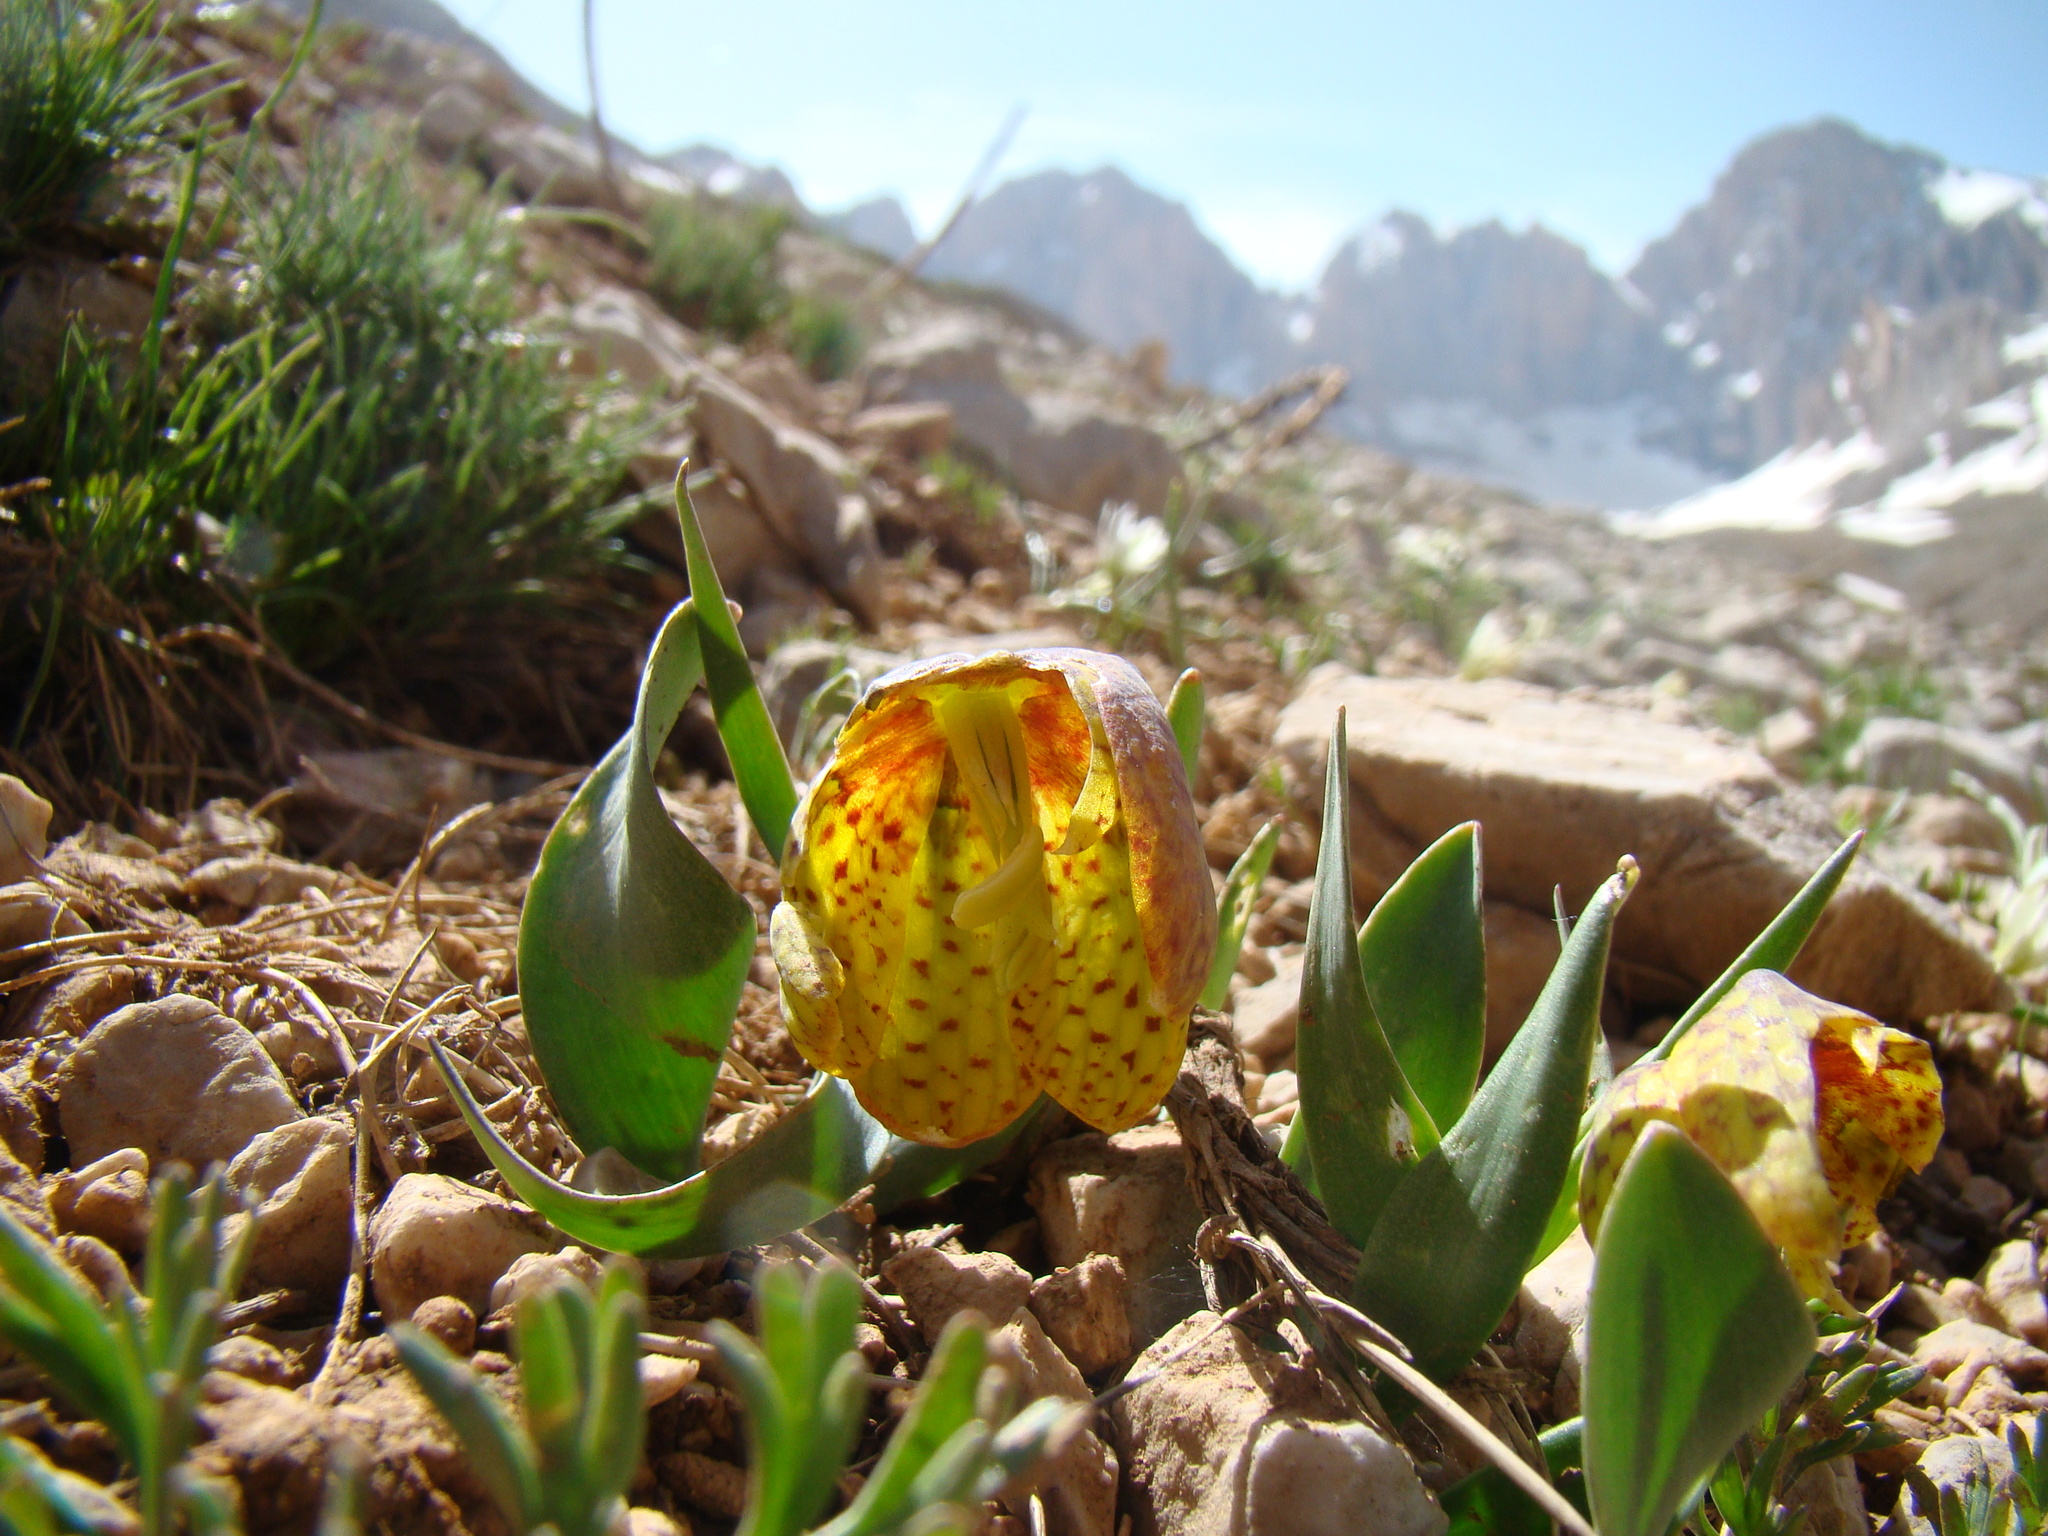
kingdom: Plantae
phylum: Tracheophyta
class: Liliopsida
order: Liliales
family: Liliaceae
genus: Fritillaria
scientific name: Fritillaria aurea
